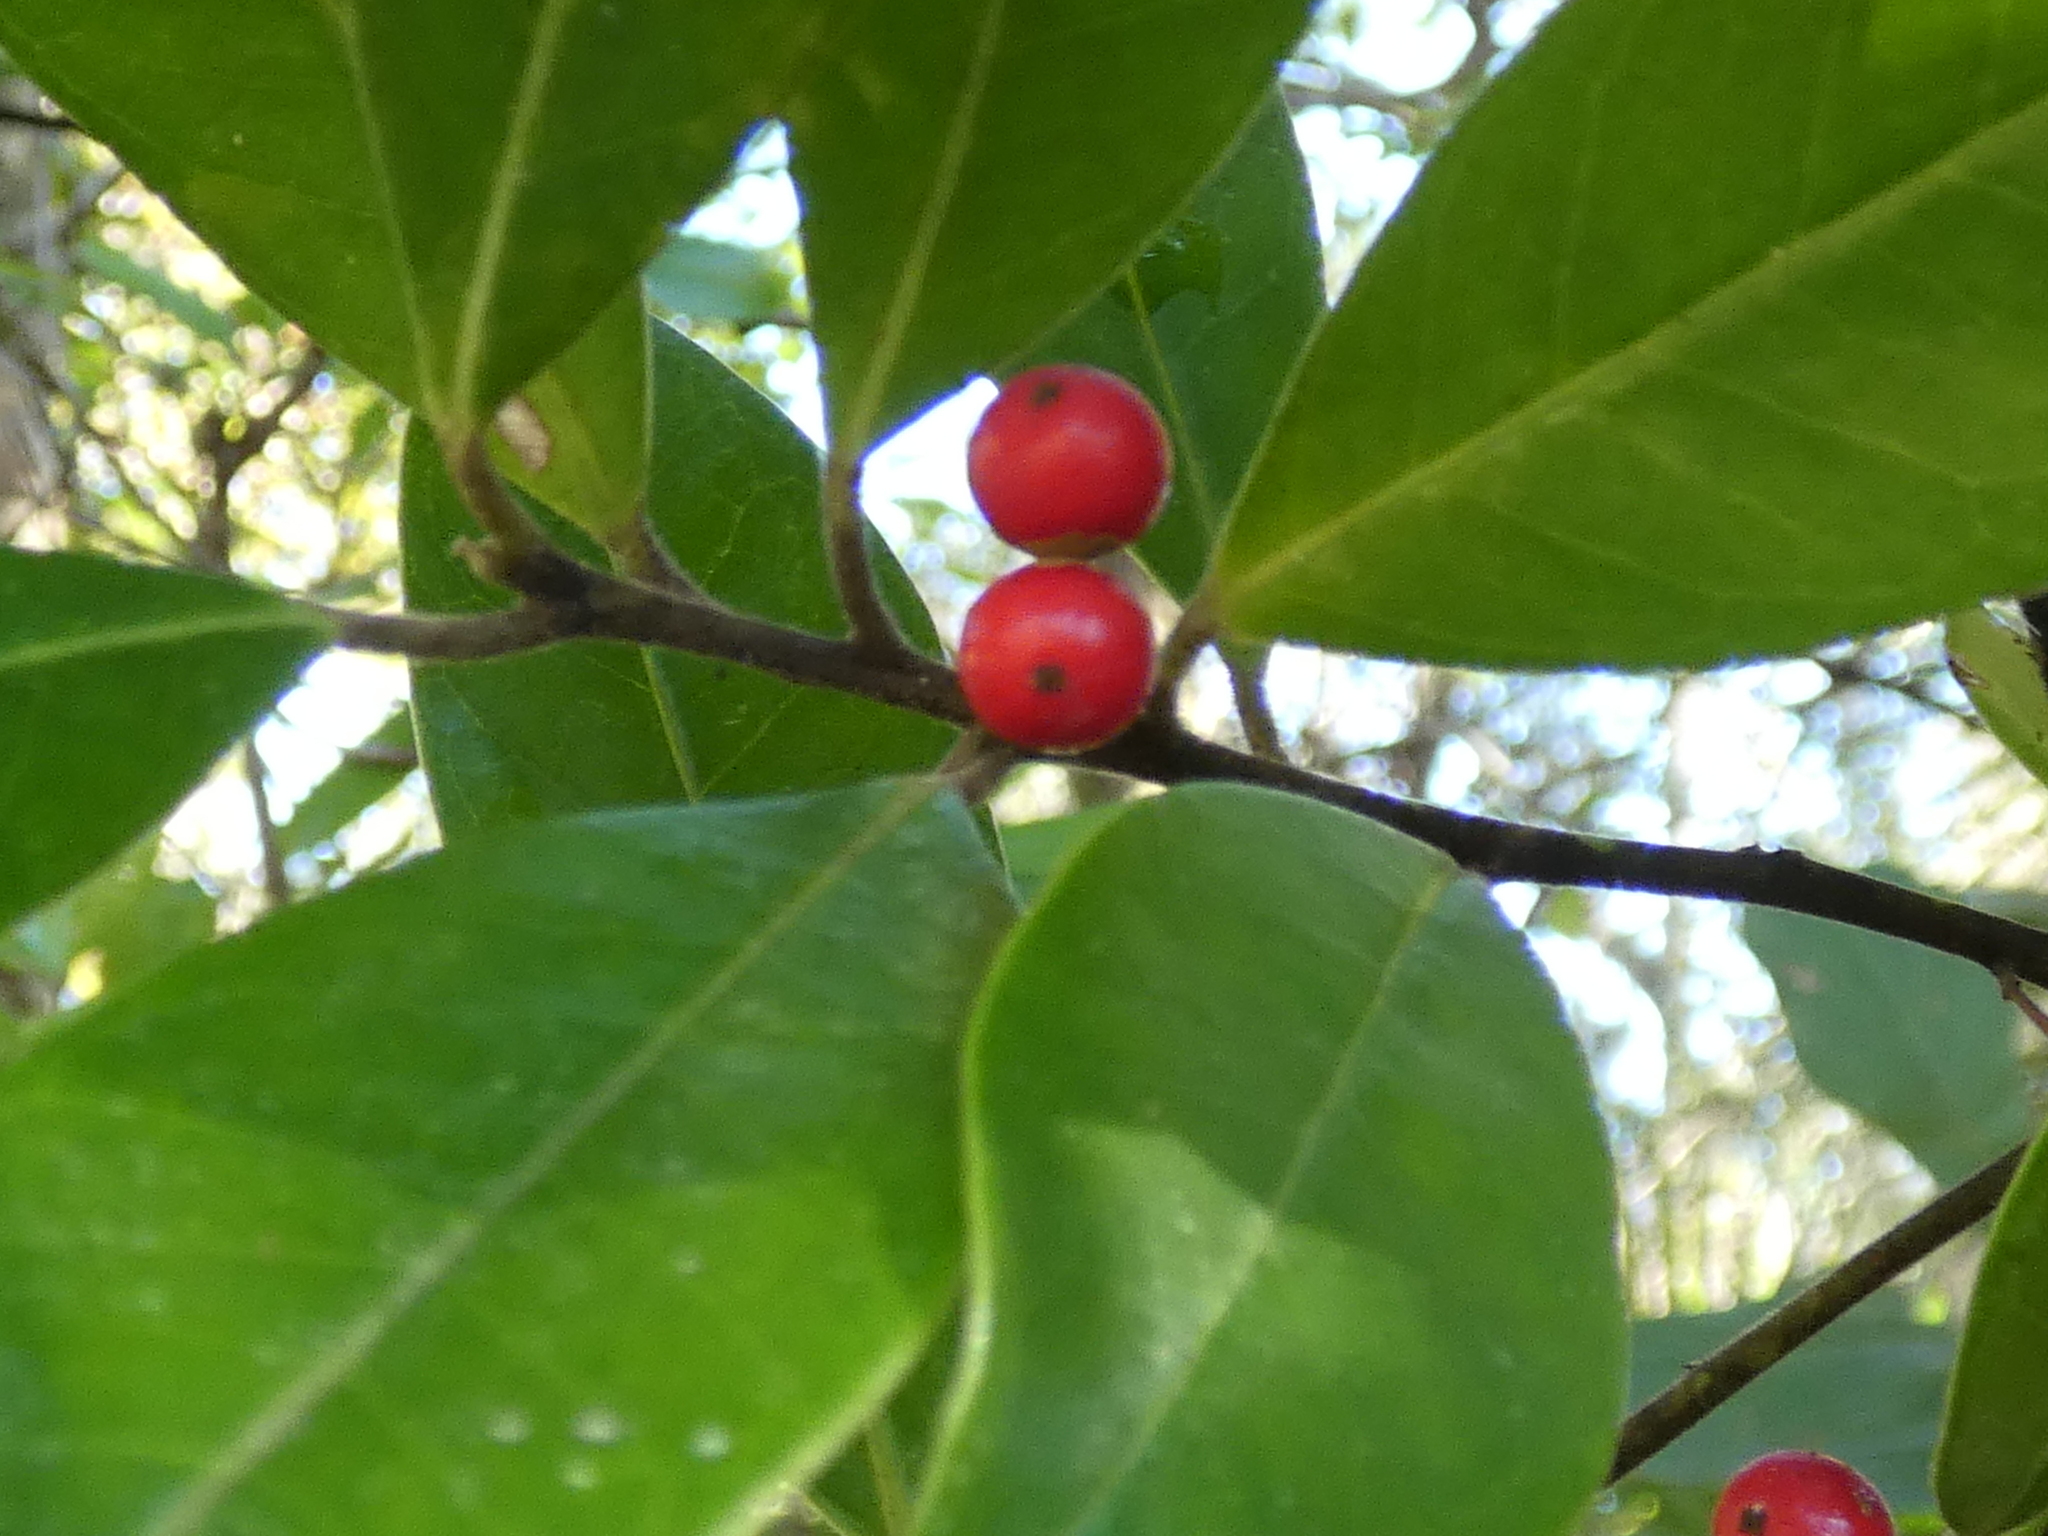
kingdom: Plantae
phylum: Tracheophyta
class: Magnoliopsida
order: Aquifoliales
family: Aquifoliaceae
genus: Ilex
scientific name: Ilex cassine
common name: Dahoon
